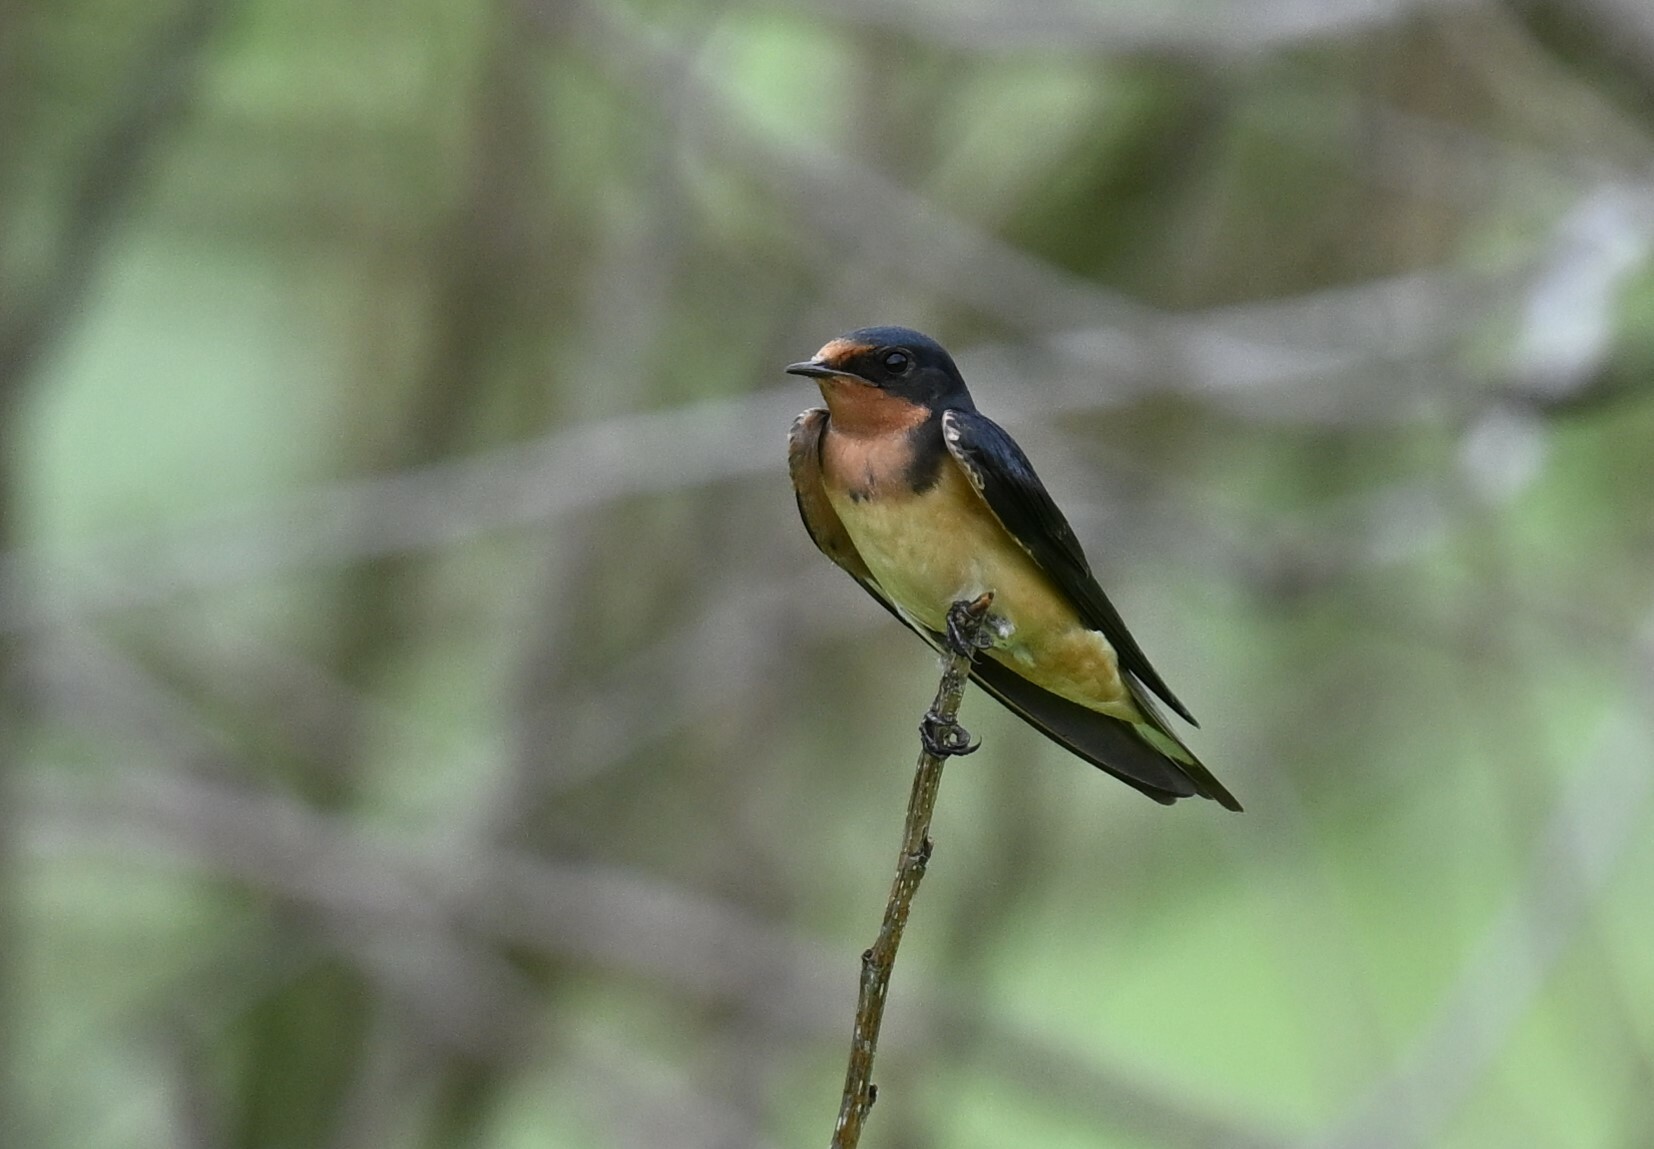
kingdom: Animalia
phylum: Chordata
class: Aves
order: Passeriformes
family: Hirundinidae
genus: Hirundo
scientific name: Hirundo rustica
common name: Barn swallow
